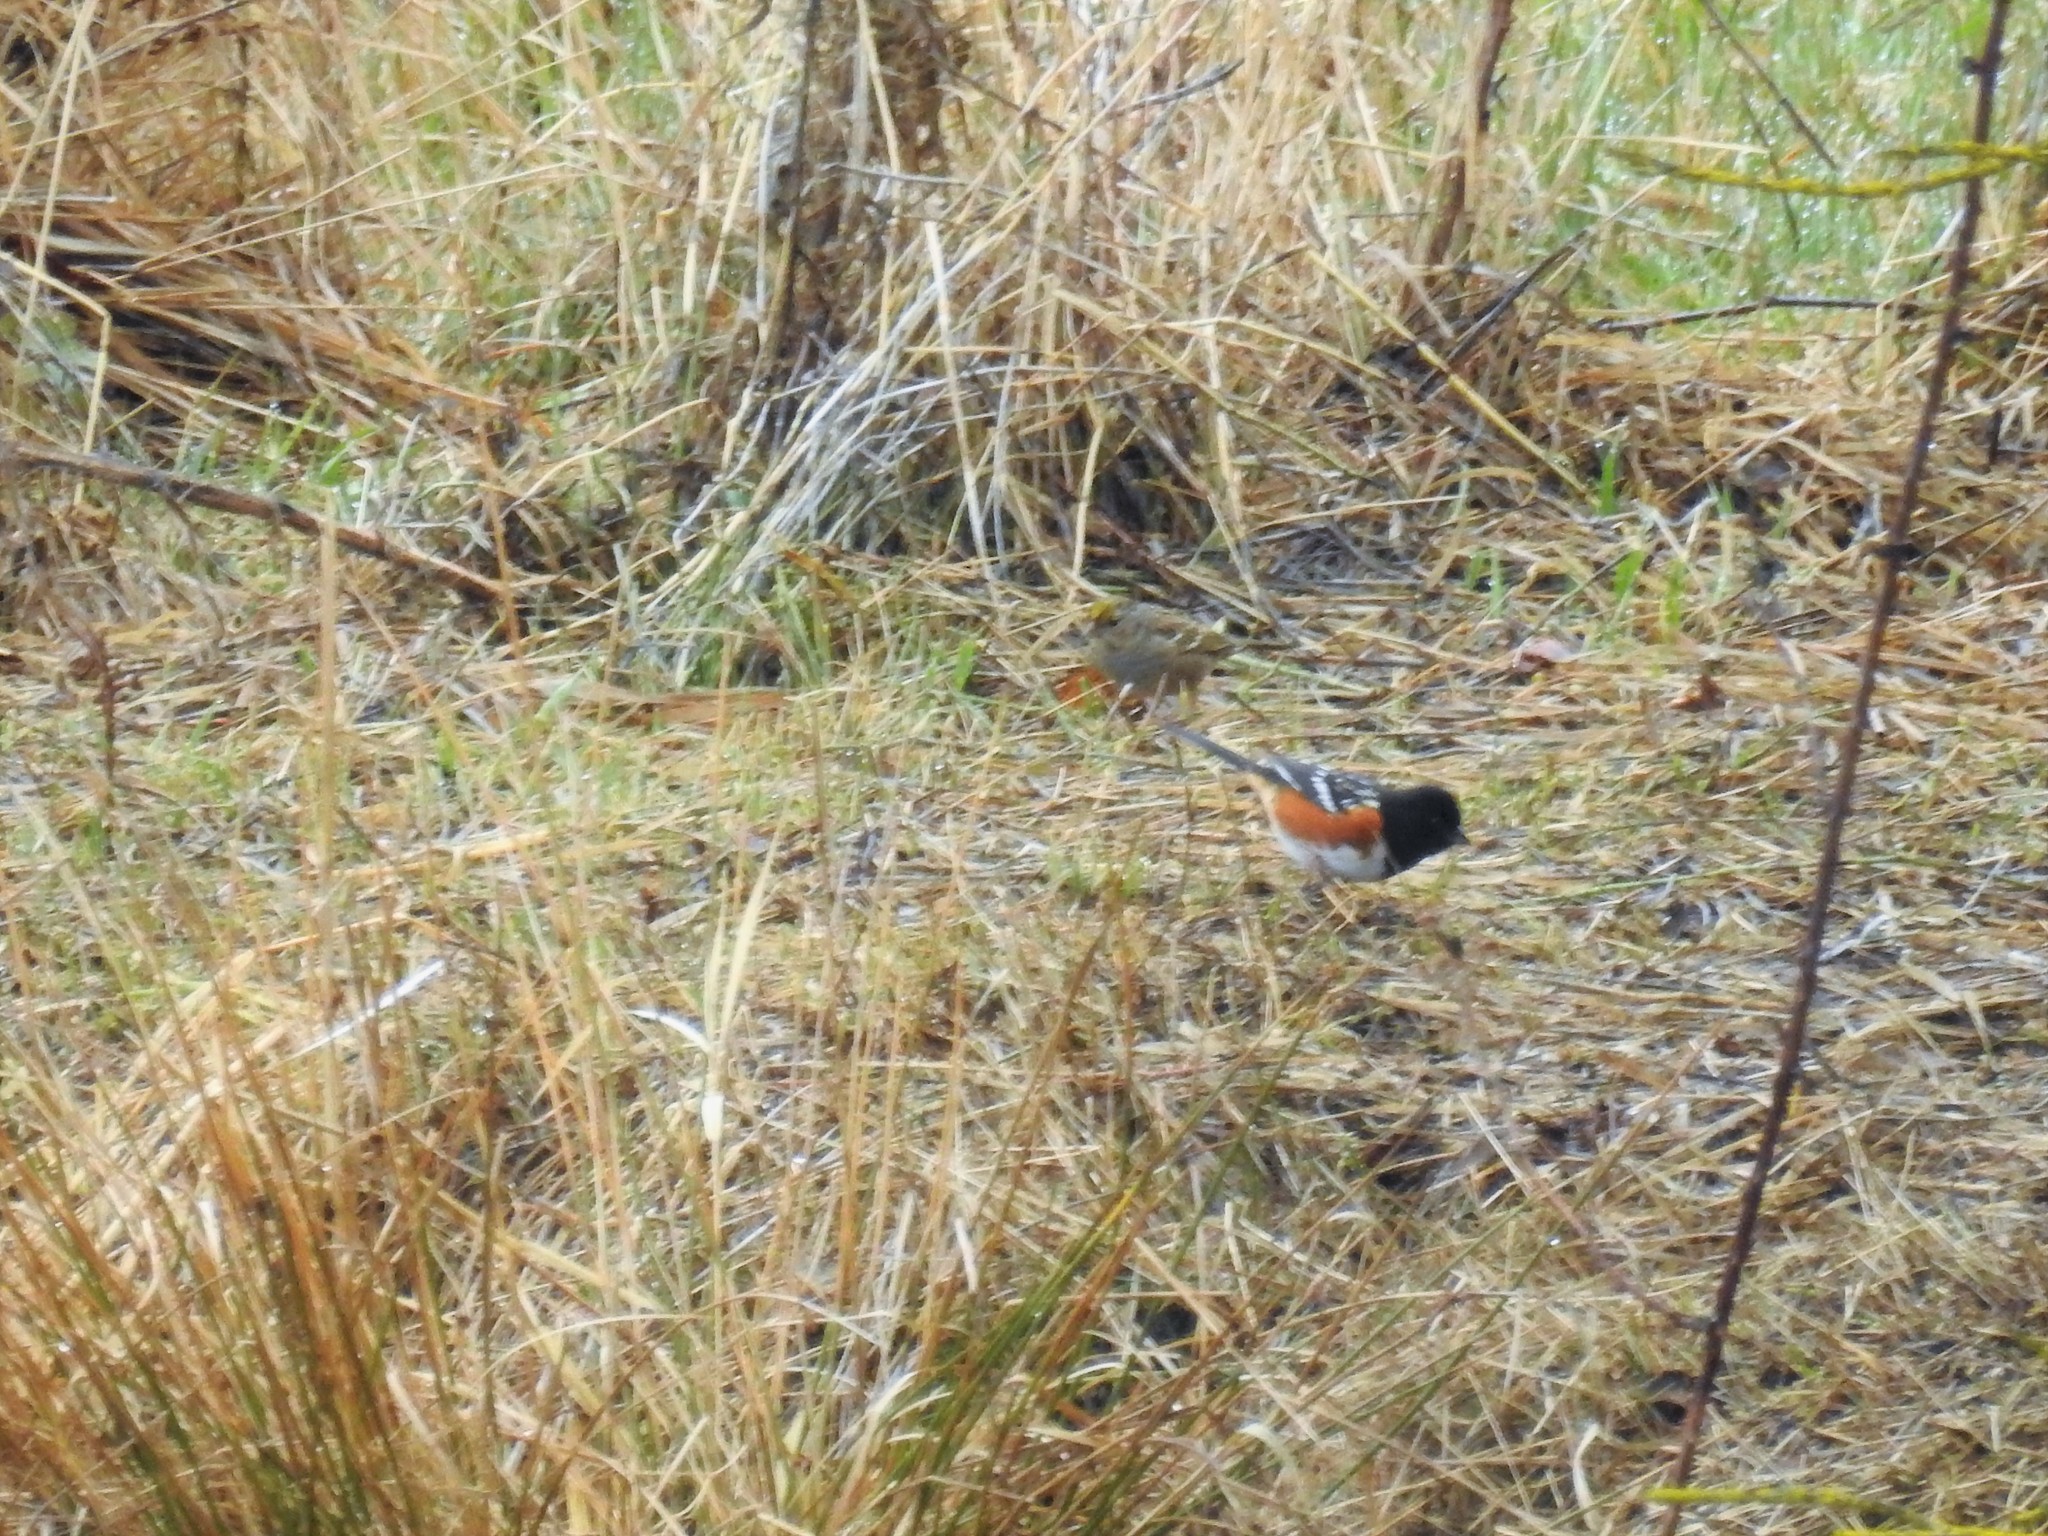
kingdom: Animalia
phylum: Chordata
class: Aves
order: Passeriformes
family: Passerellidae
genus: Pipilo
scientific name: Pipilo maculatus
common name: Spotted towhee
